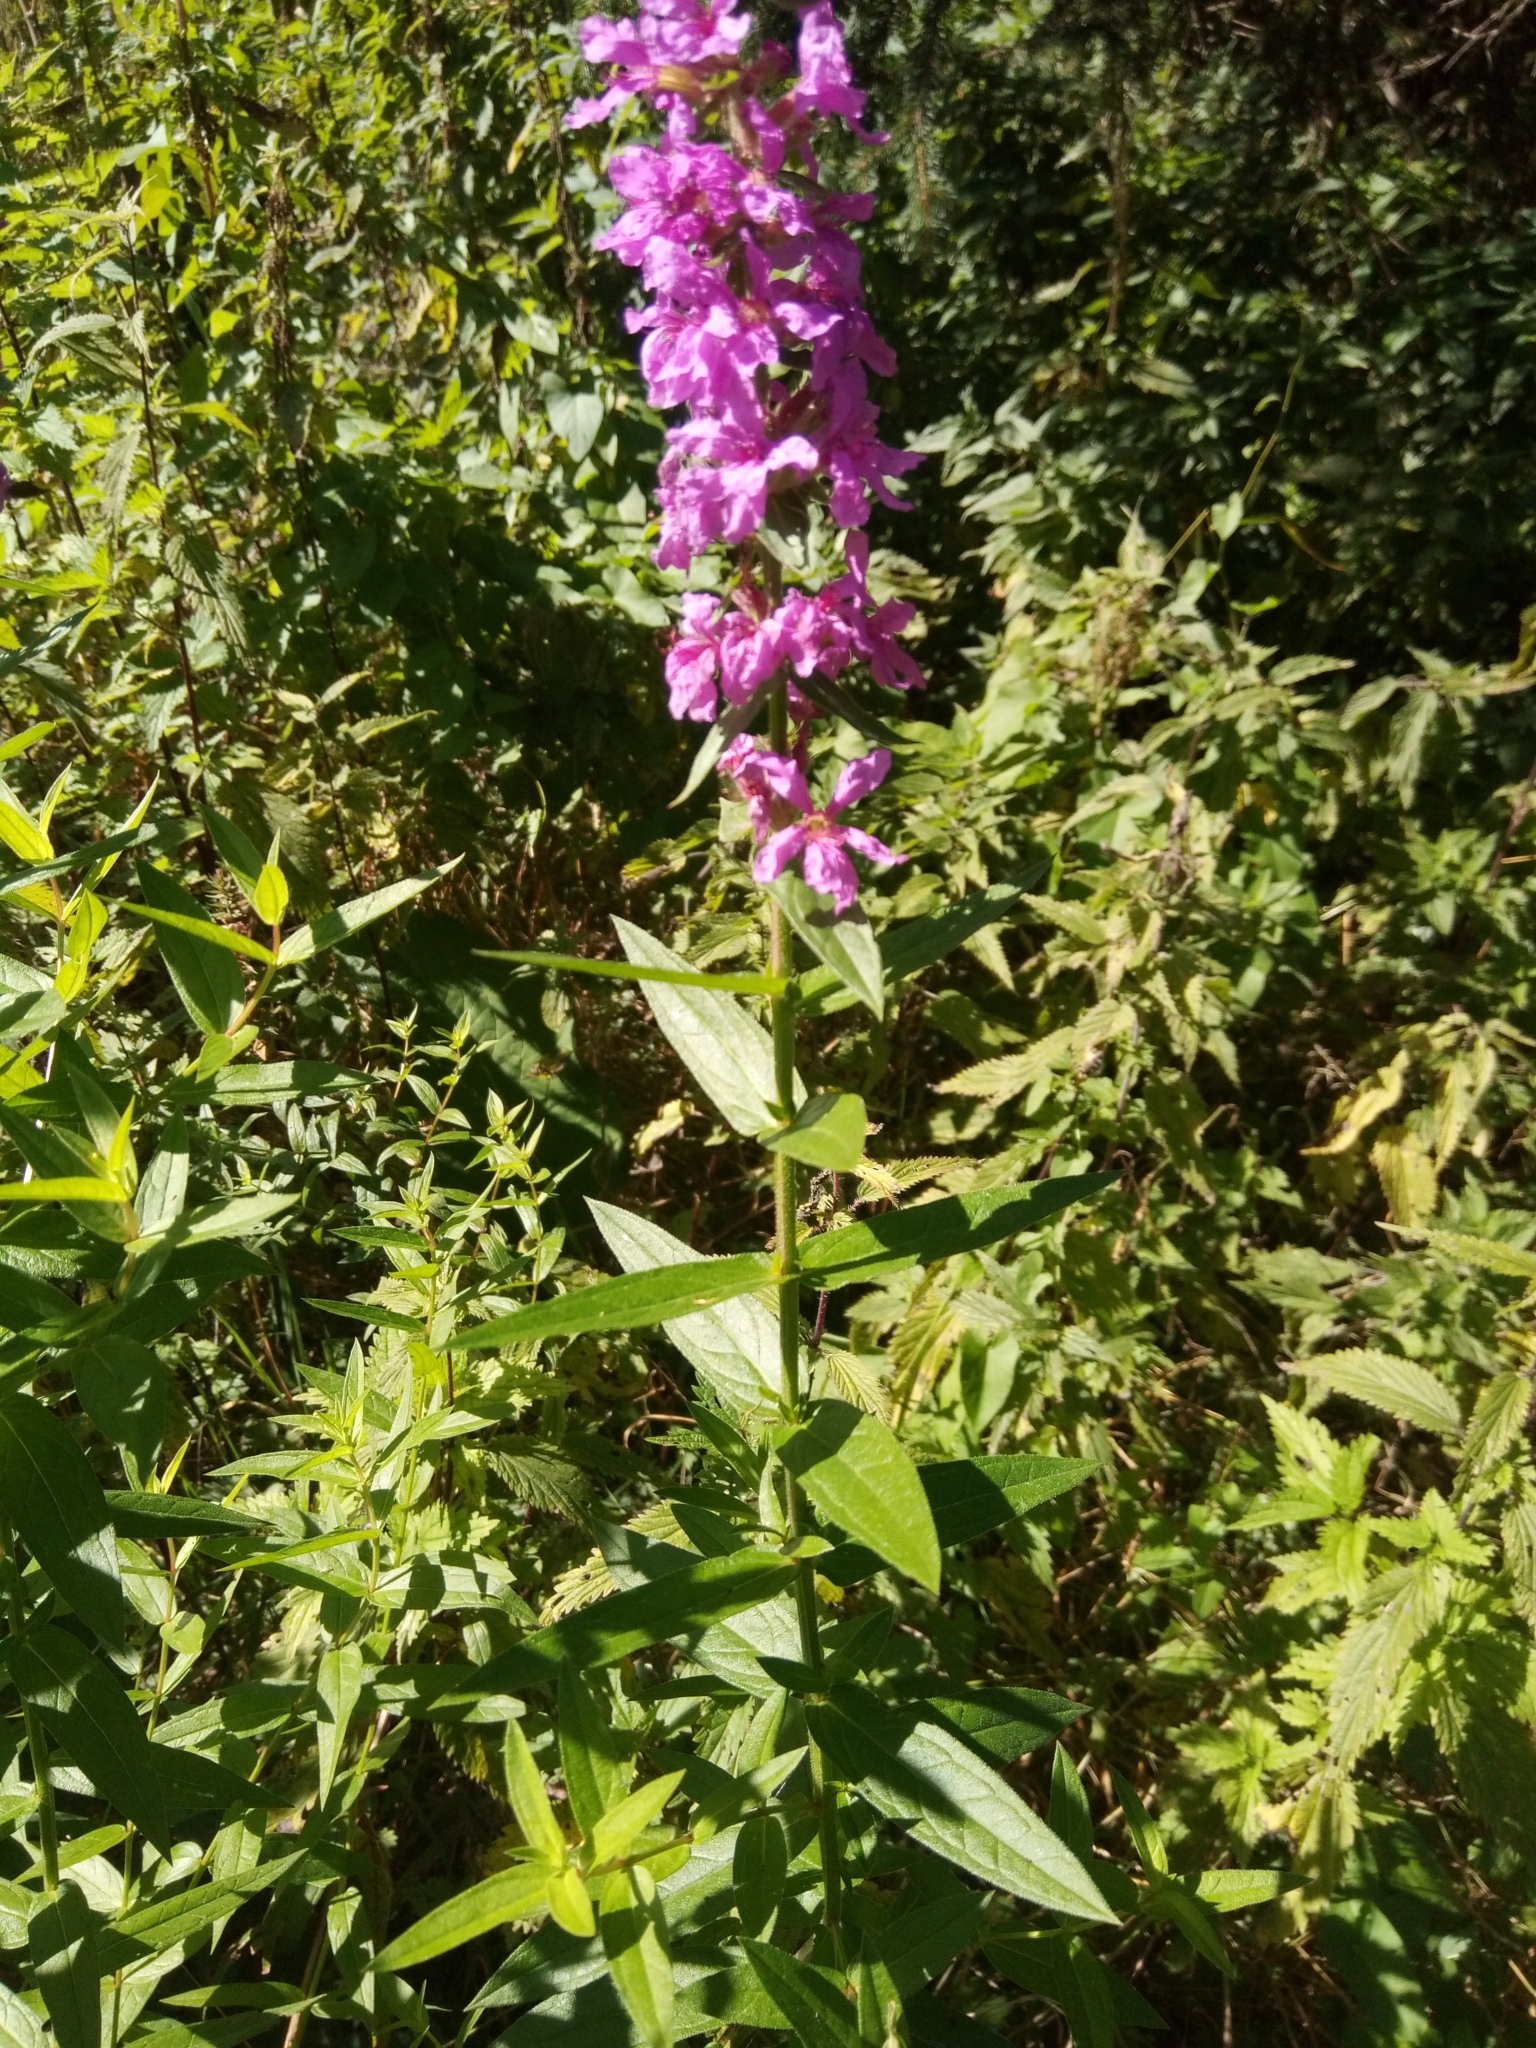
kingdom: Plantae
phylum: Tracheophyta
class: Magnoliopsida
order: Myrtales
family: Lythraceae
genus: Lythrum
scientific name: Lythrum salicaria
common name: Purple loosestrife
